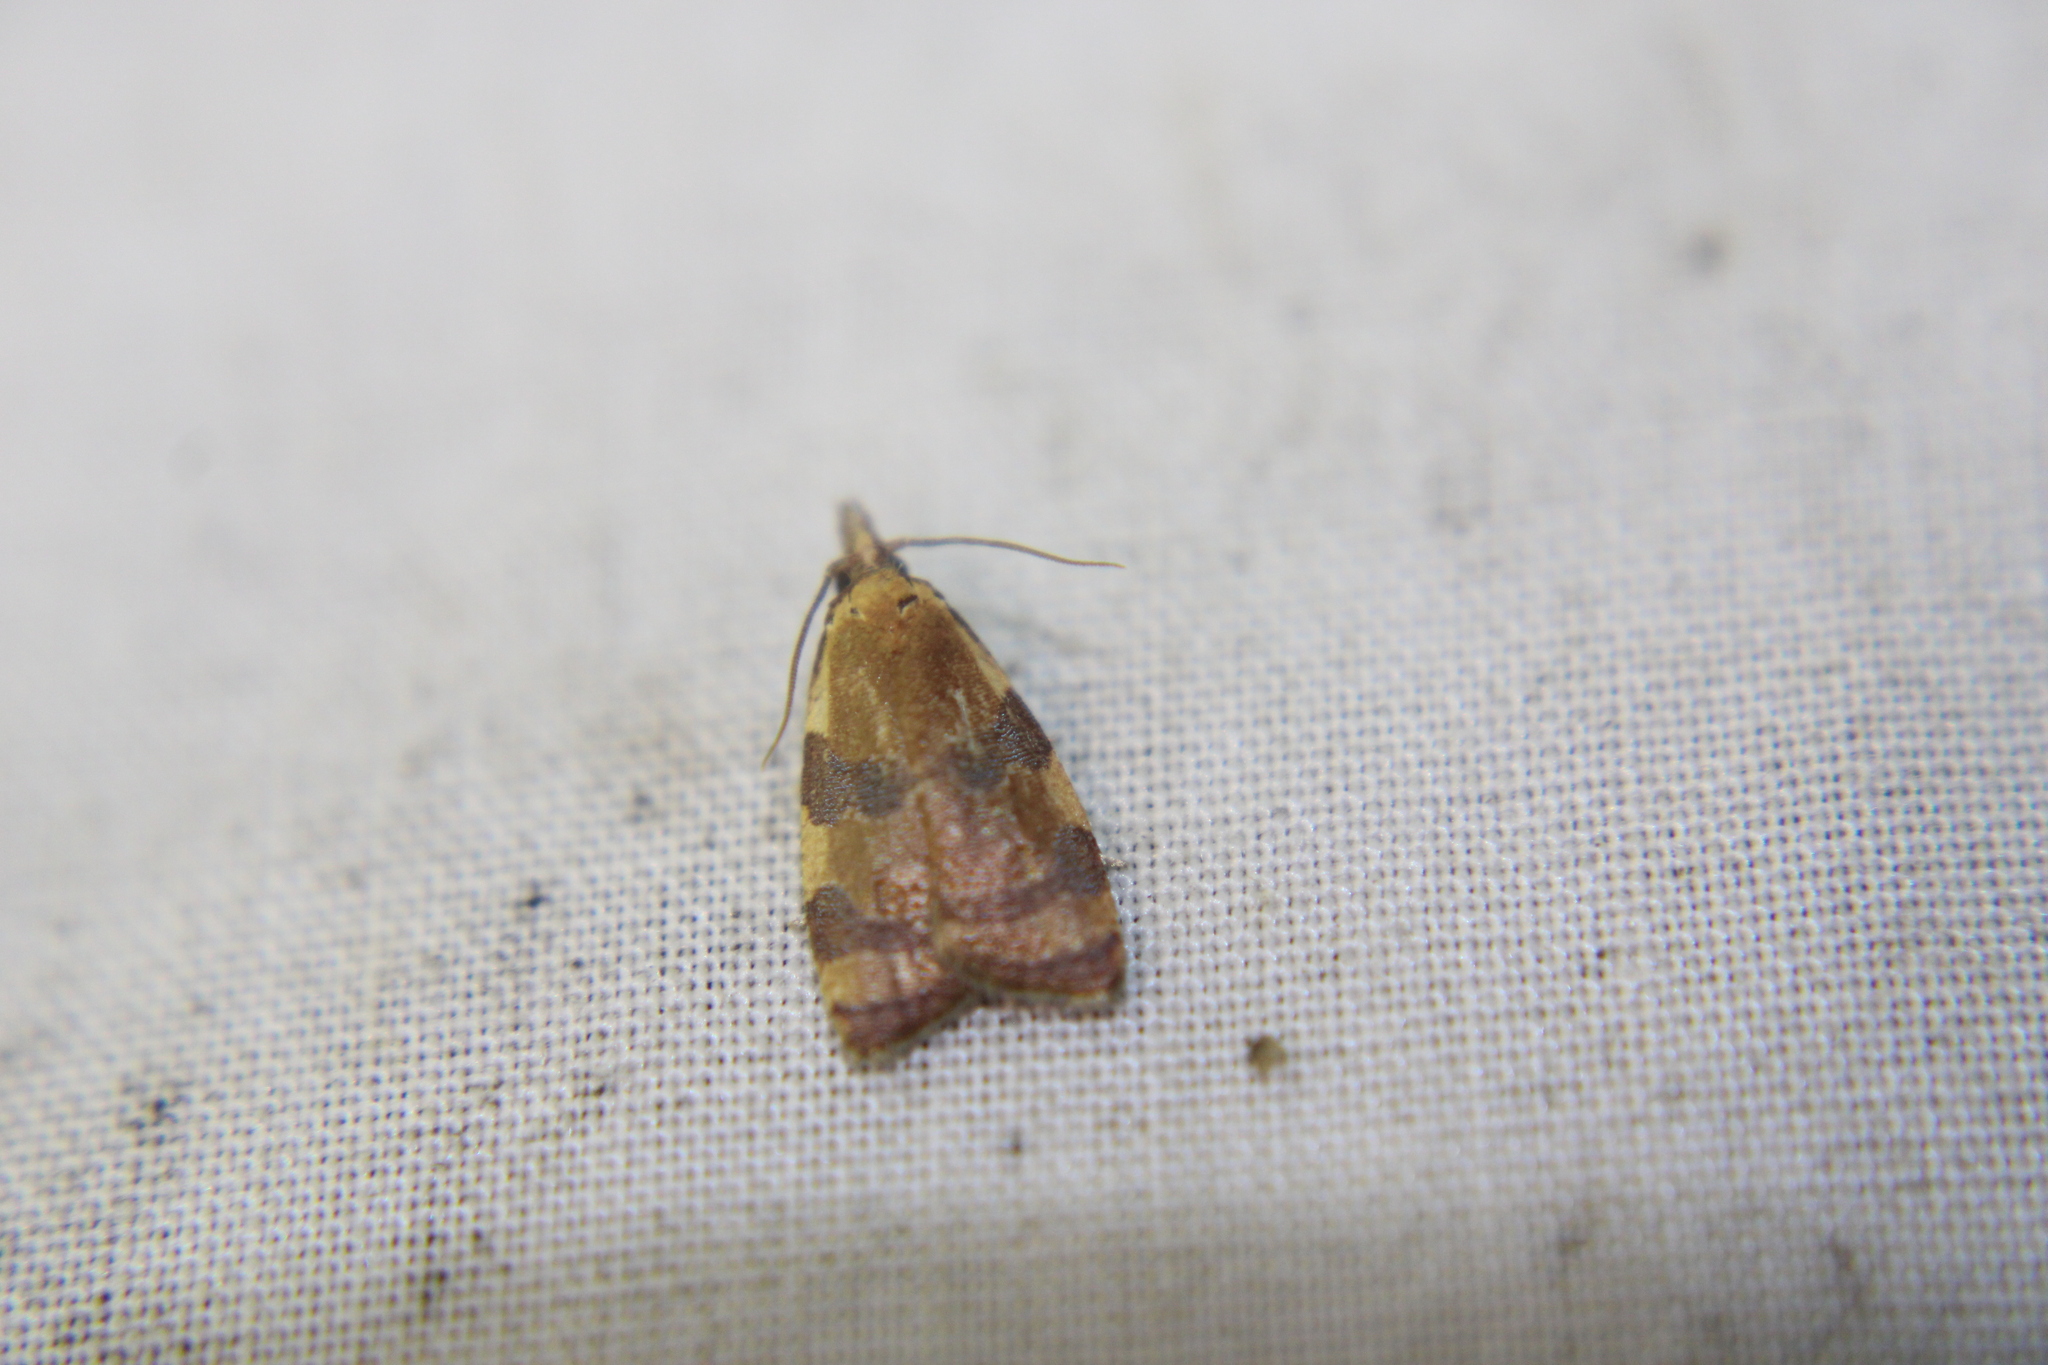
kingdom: Animalia
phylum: Arthropoda
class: Insecta
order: Lepidoptera
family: Tortricidae
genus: Cenopis
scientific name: Cenopis diluticostana
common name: Spring dead-leaf roller moth
